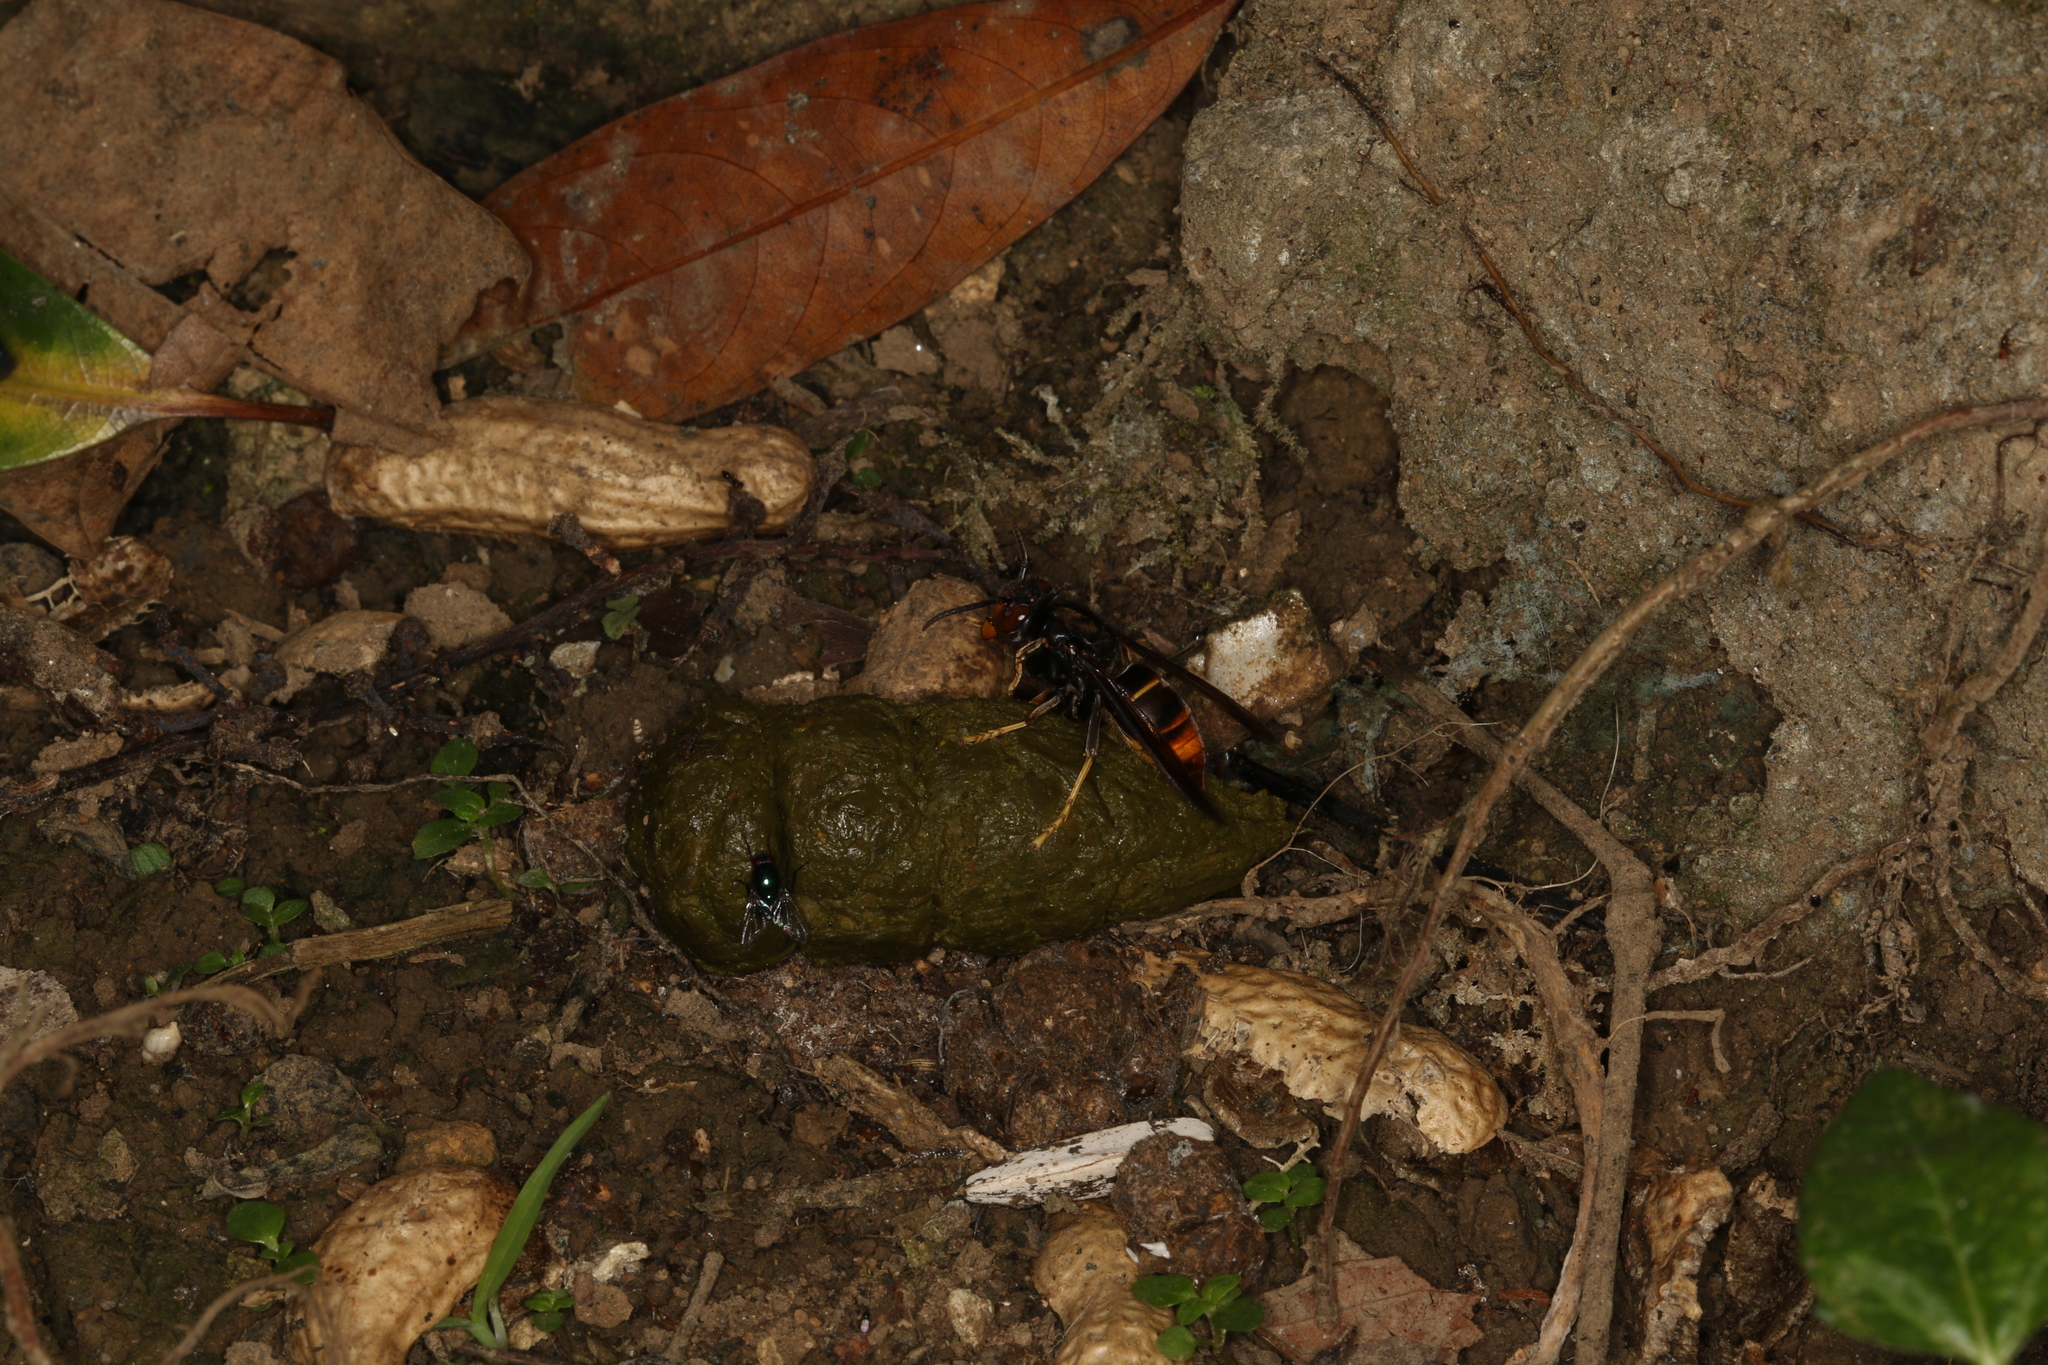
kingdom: Animalia
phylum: Arthropoda
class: Insecta
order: Hymenoptera
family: Vespidae
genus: Vespa
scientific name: Vespa velutina
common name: Asian hornet
